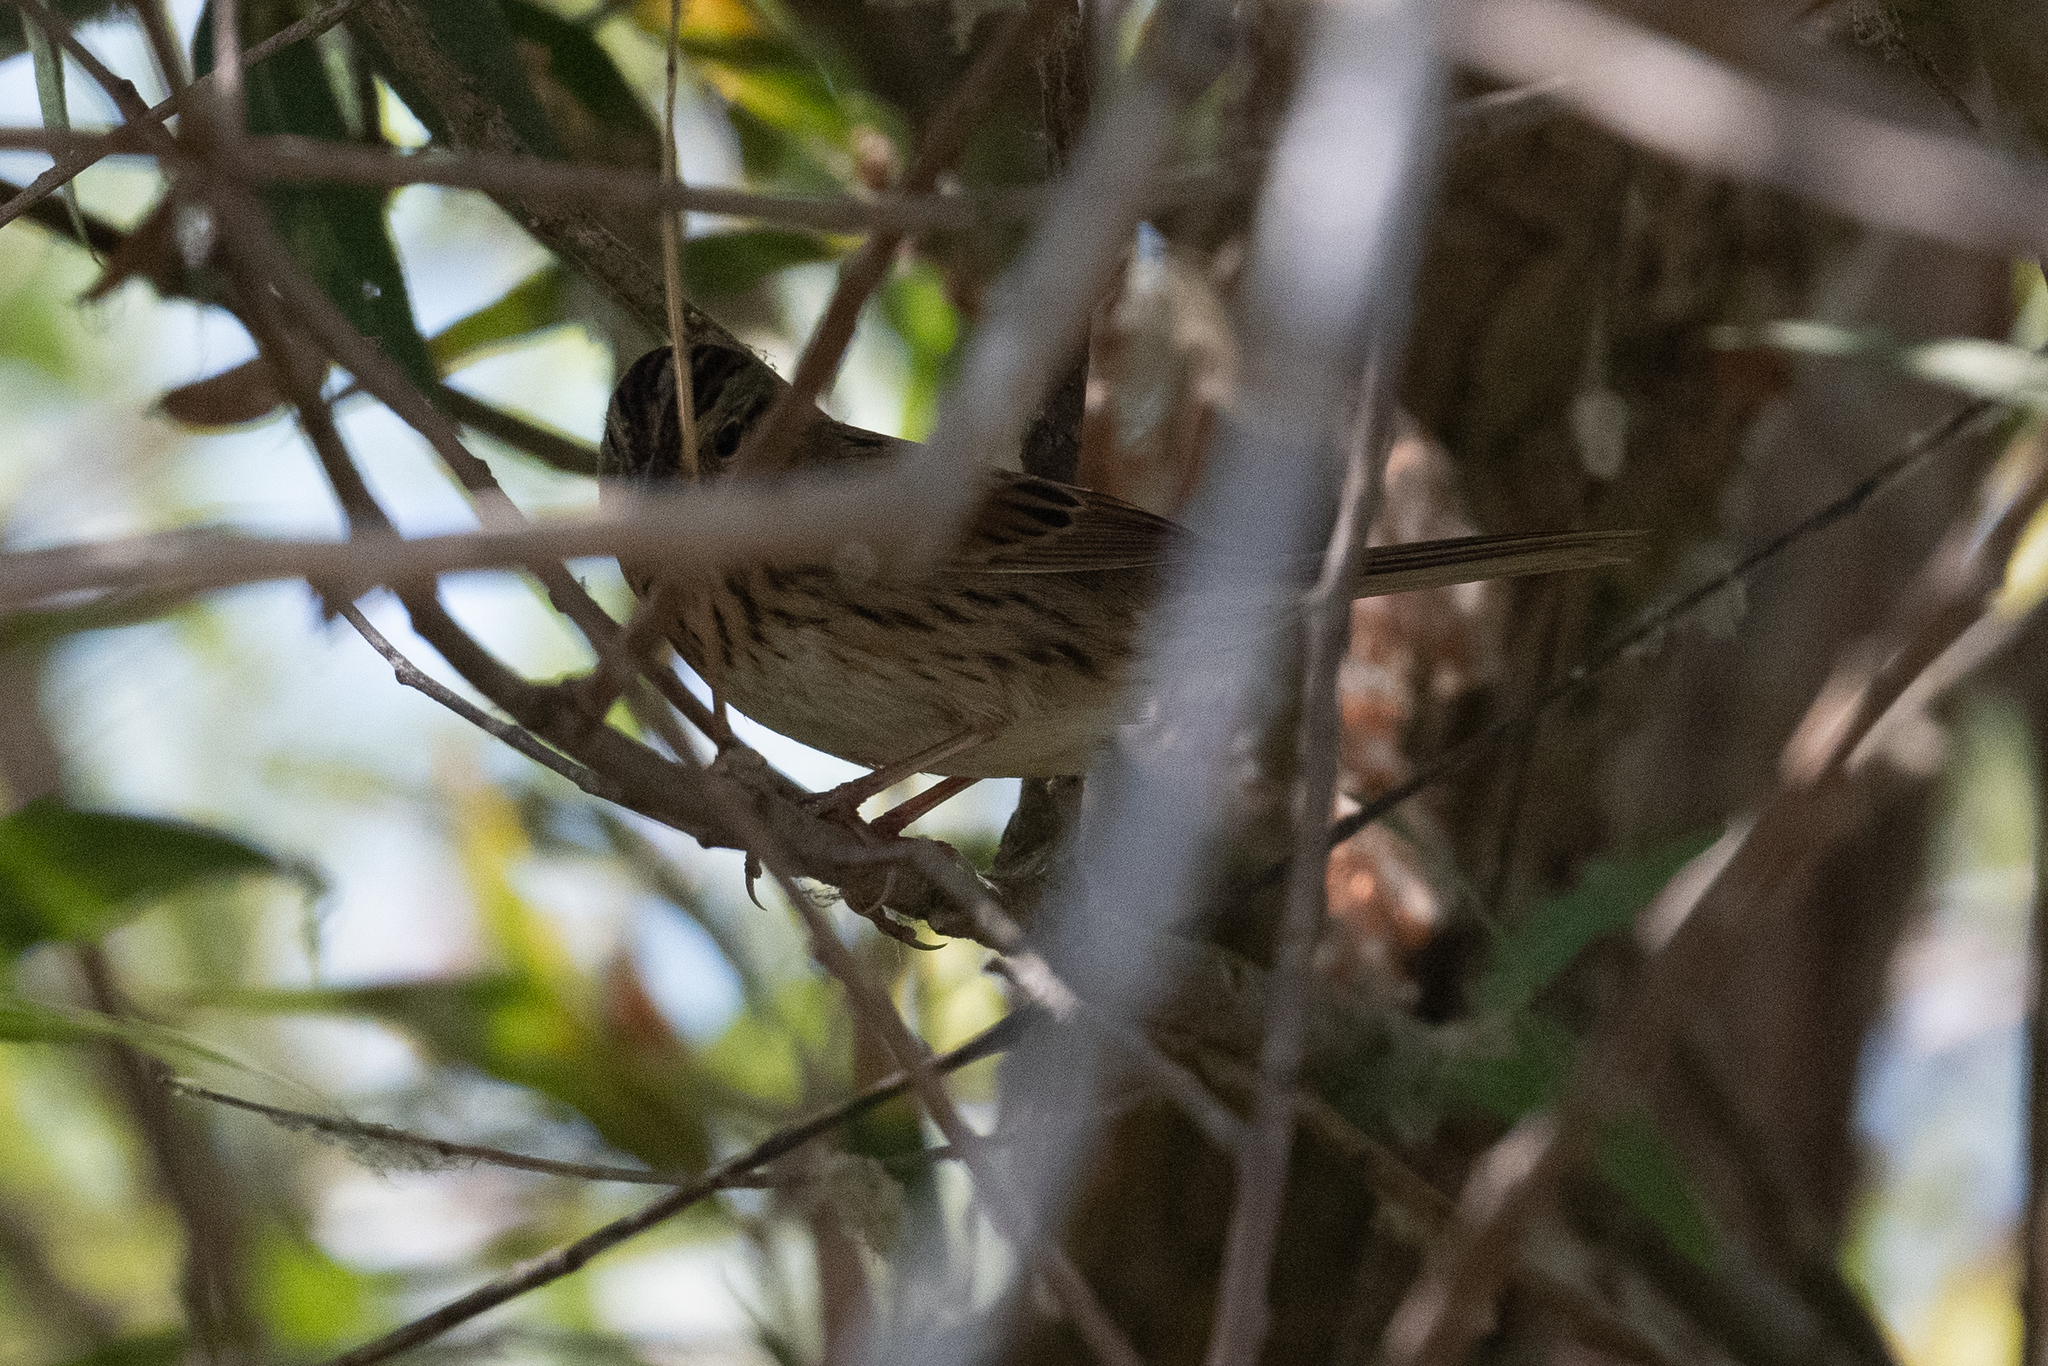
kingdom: Animalia
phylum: Chordata
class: Aves
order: Passeriformes
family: Passerellidae
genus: Melospiza
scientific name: Melospiza lincolnii
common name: Lincoln's sparrow
